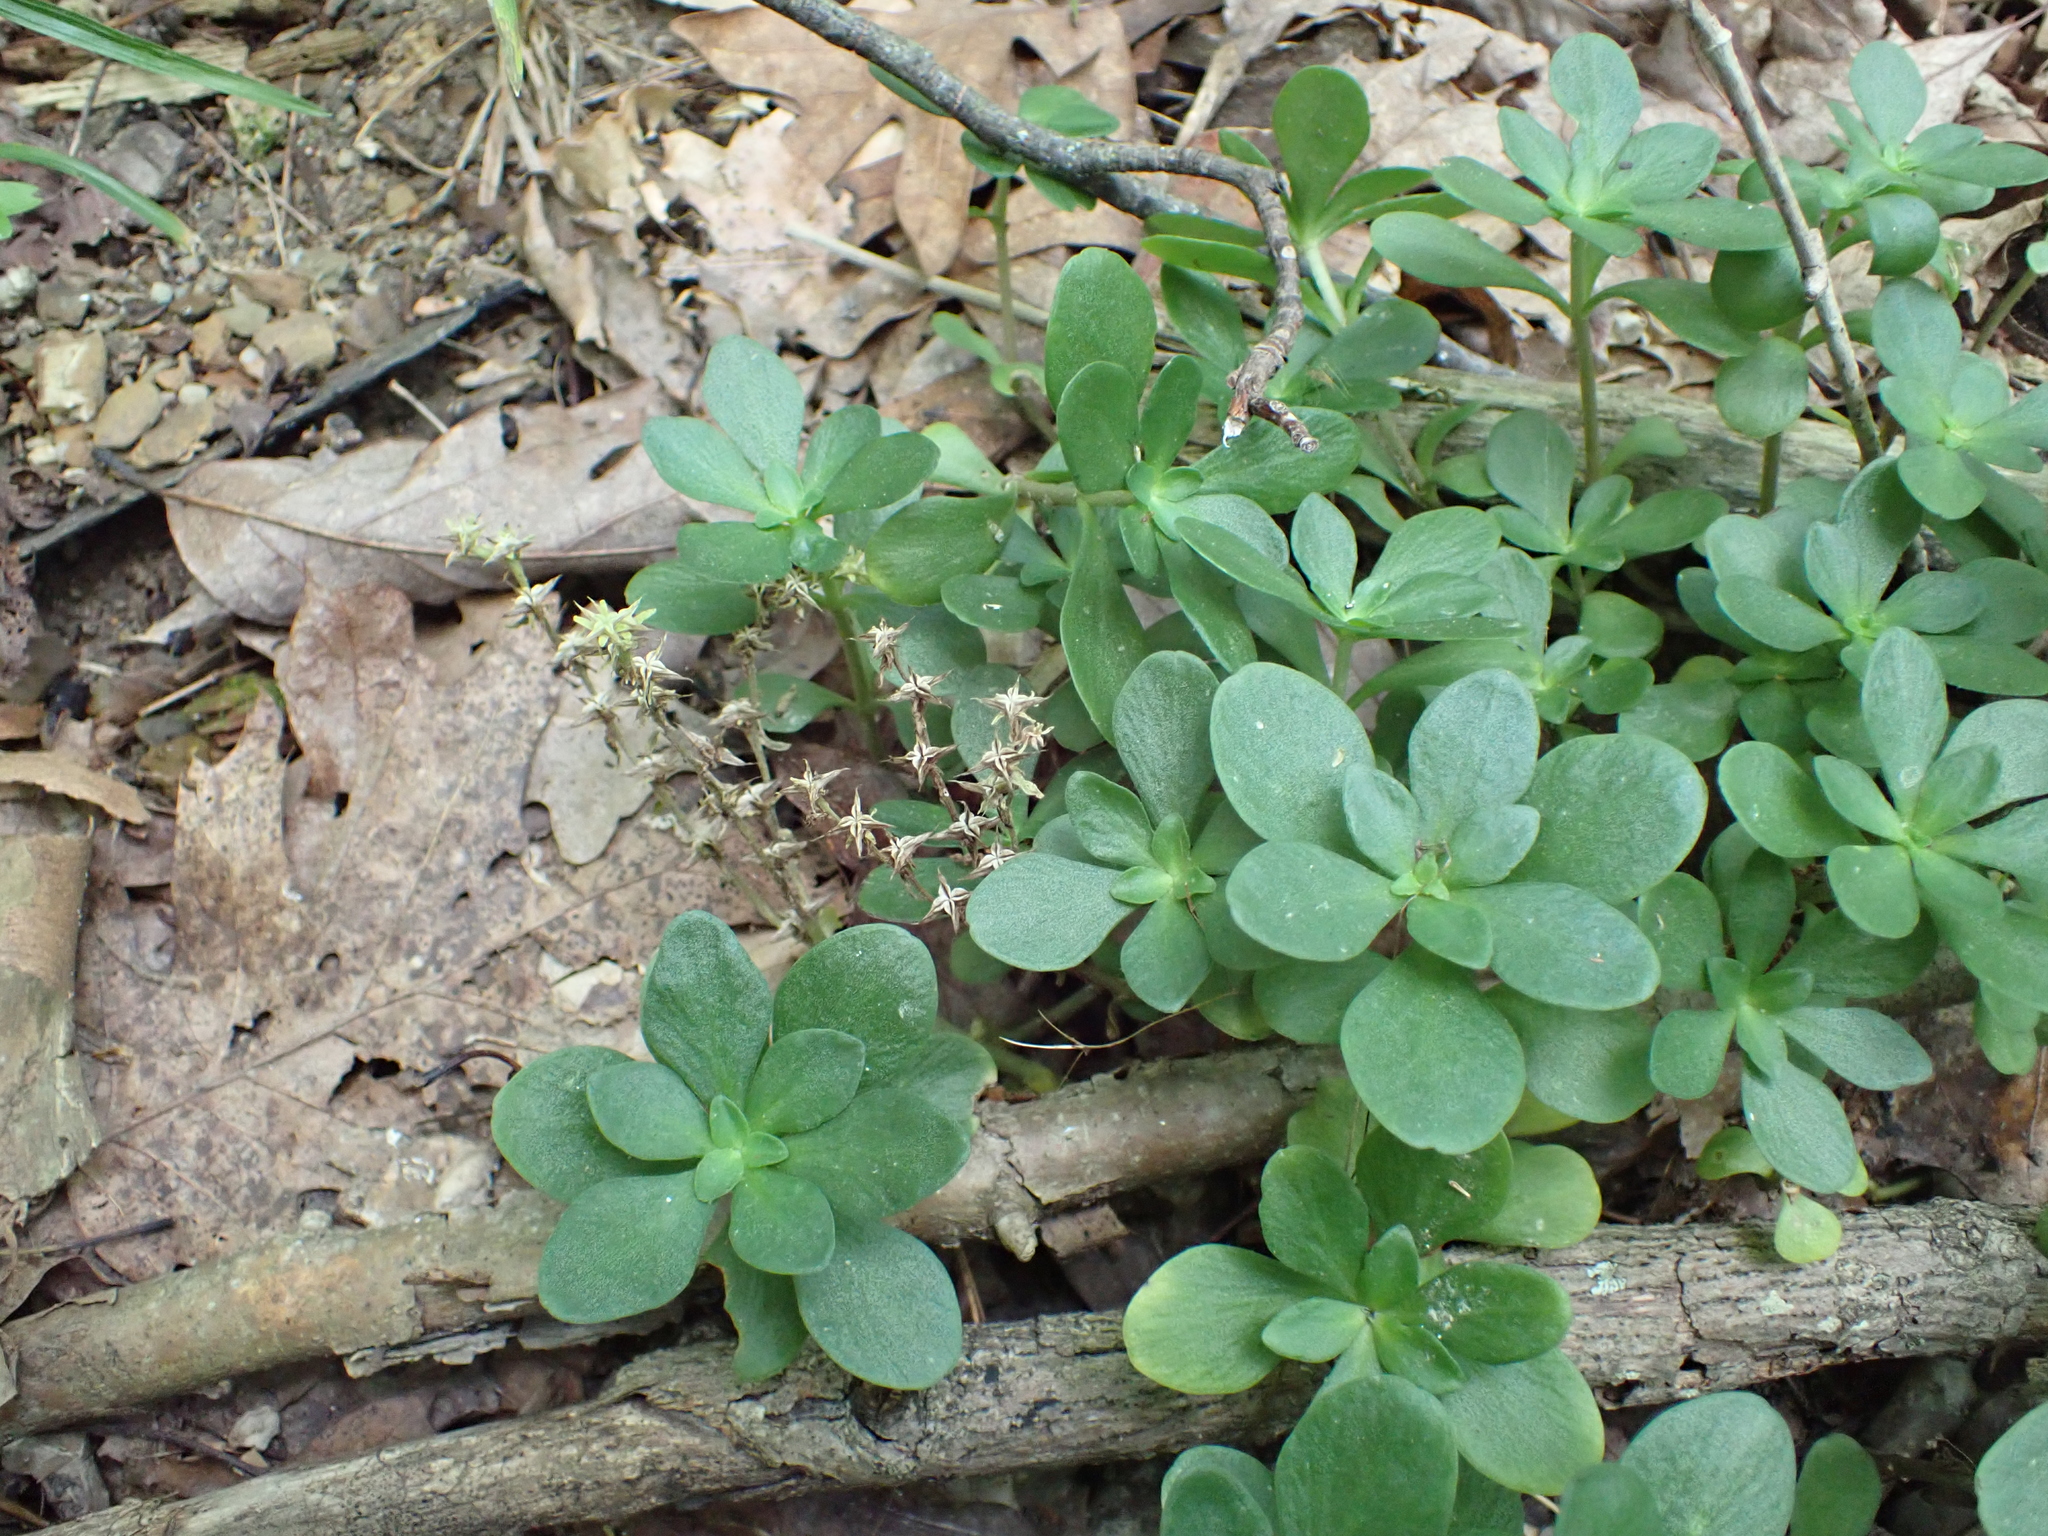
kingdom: Plantae
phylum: Tracheophyta
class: Magnoliopsida
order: Saxifragales
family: Crassulaceae
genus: Sedum
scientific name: Sedum ternatum
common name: Wild stonecrop
